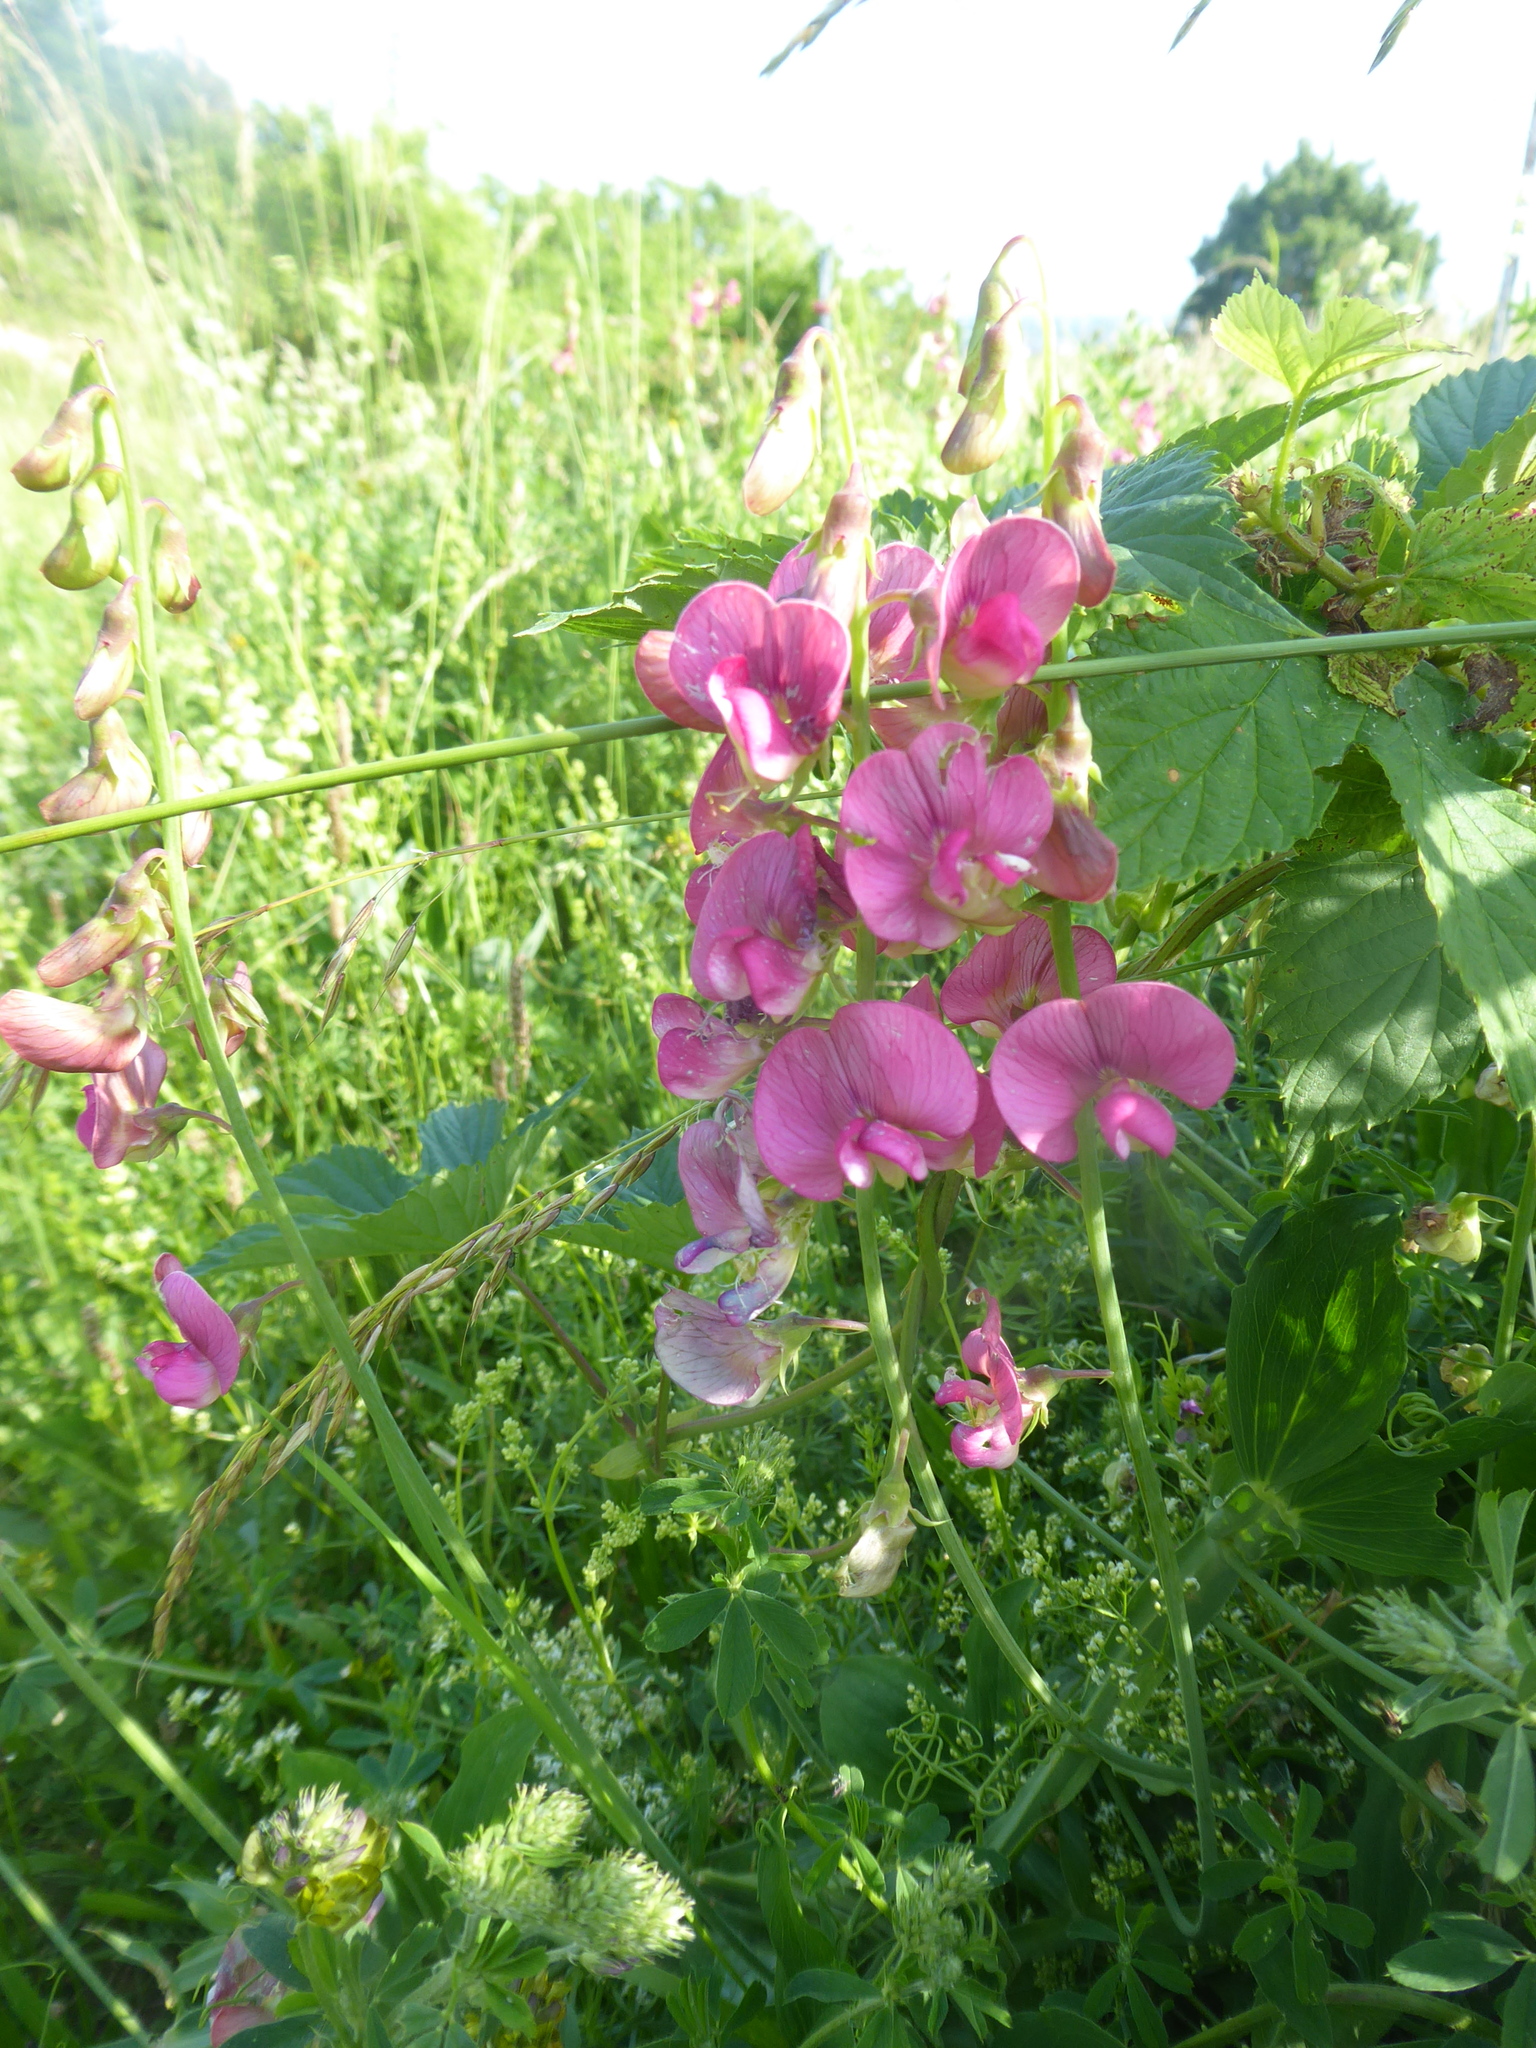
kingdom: Plantae
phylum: Tracheophyta
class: Magnoliopsida
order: Fabales
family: Fabaceae
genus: Lathyrus
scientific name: Lathyrus latifolius
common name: Perennial pea
